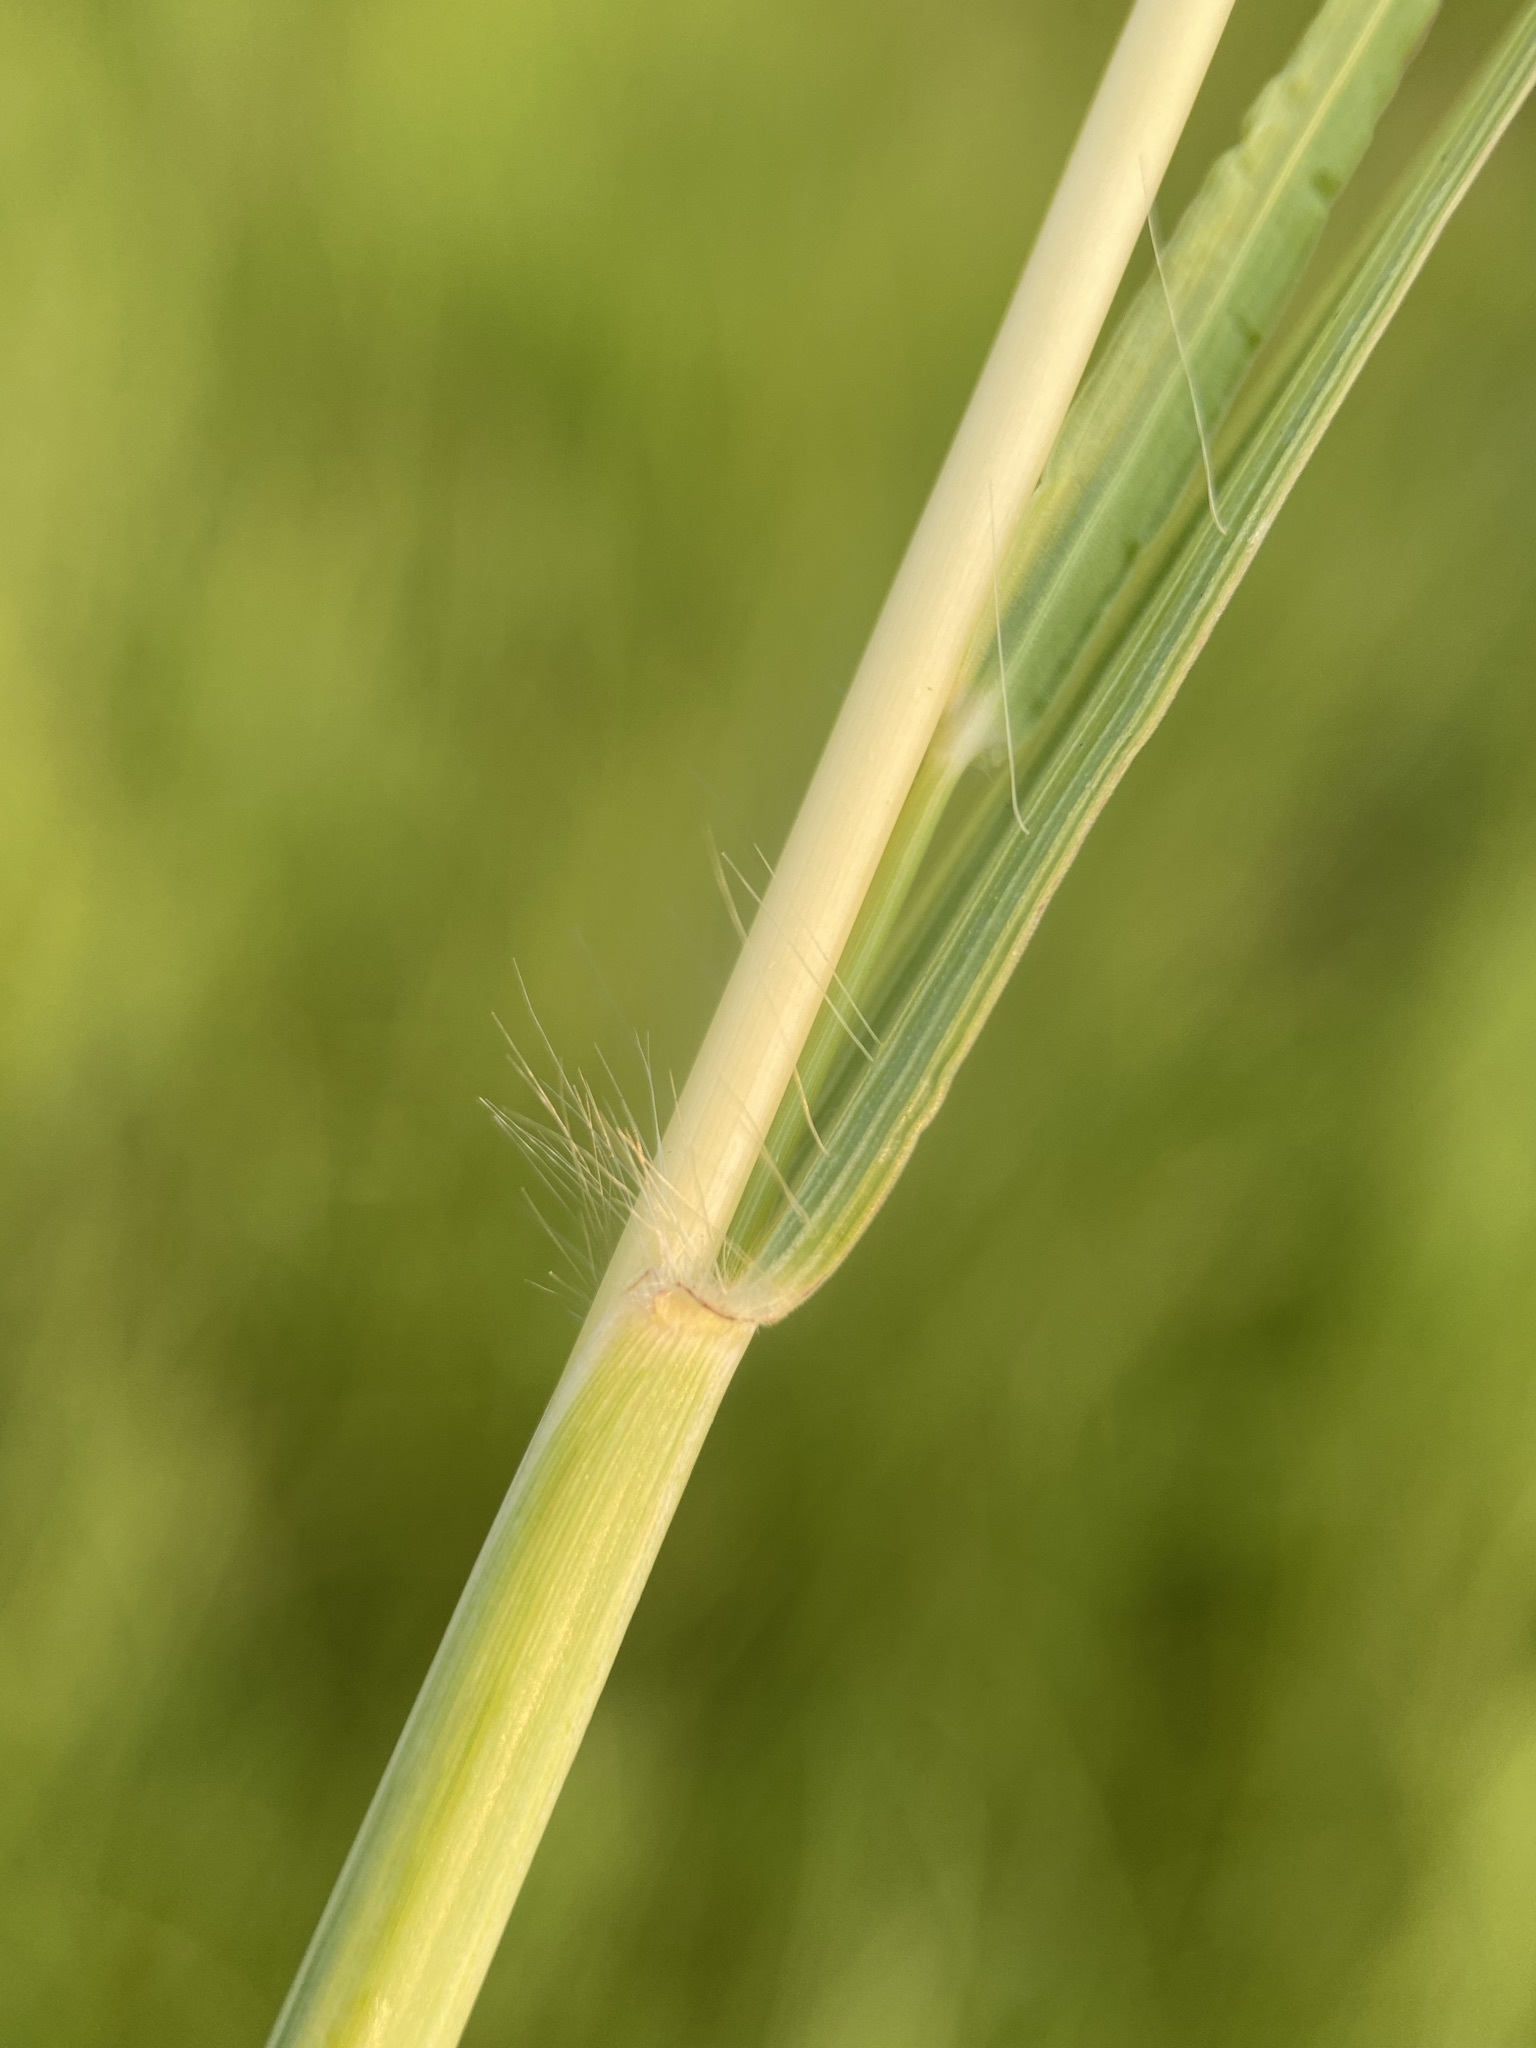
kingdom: Plantae
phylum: Tracheophyta
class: Liliopsida
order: Poales
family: Poaceae
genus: Bothriochloa
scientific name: Bothriochloa bladhii
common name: Caucasian bluestem
